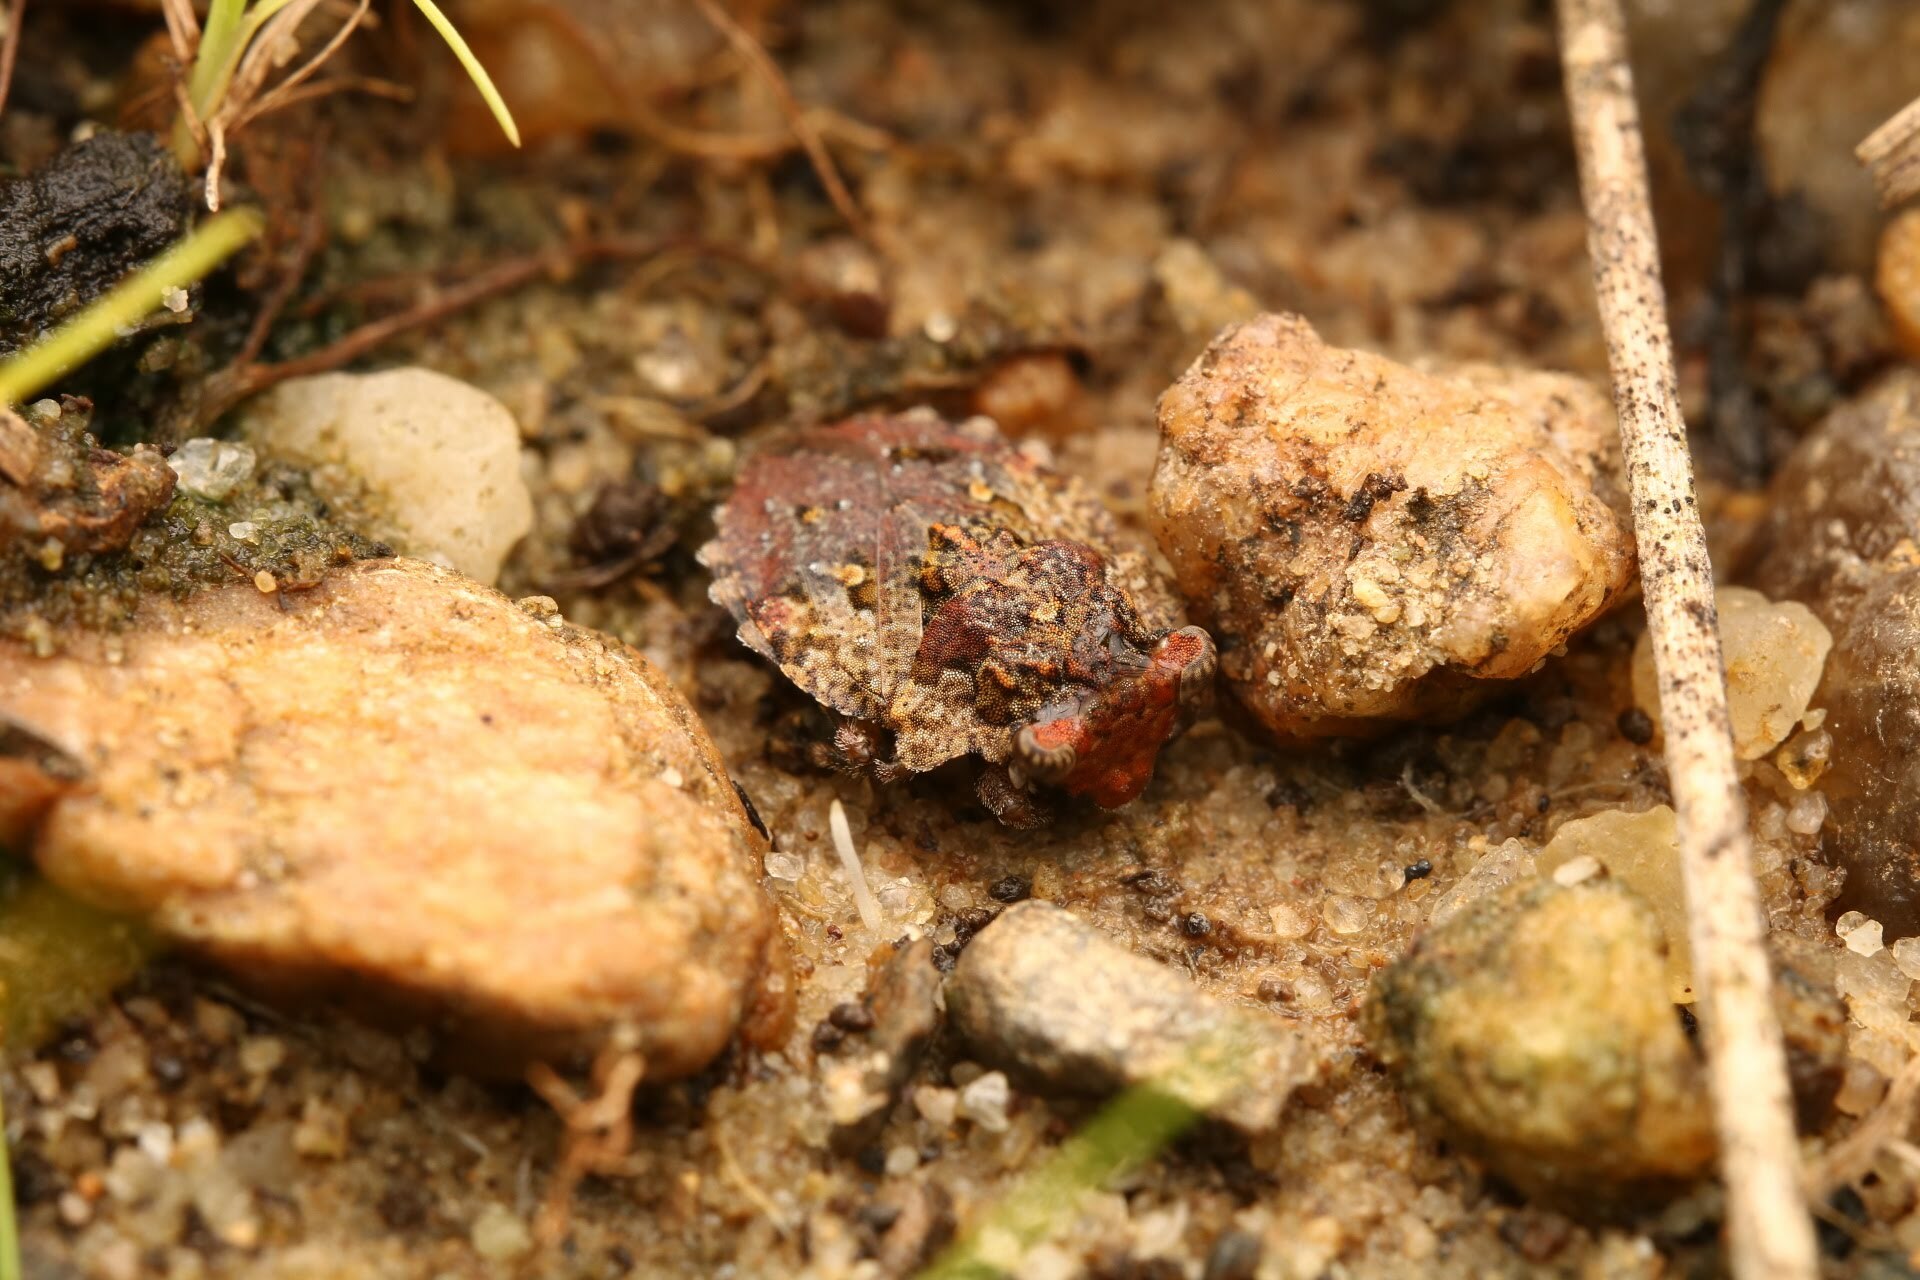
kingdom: Animalia
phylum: Arthropoda
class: Insecta
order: Hemiptera
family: Gelastocoridae
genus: Gelastocoris
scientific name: Gelastocoris oculatus
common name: Toad bug
